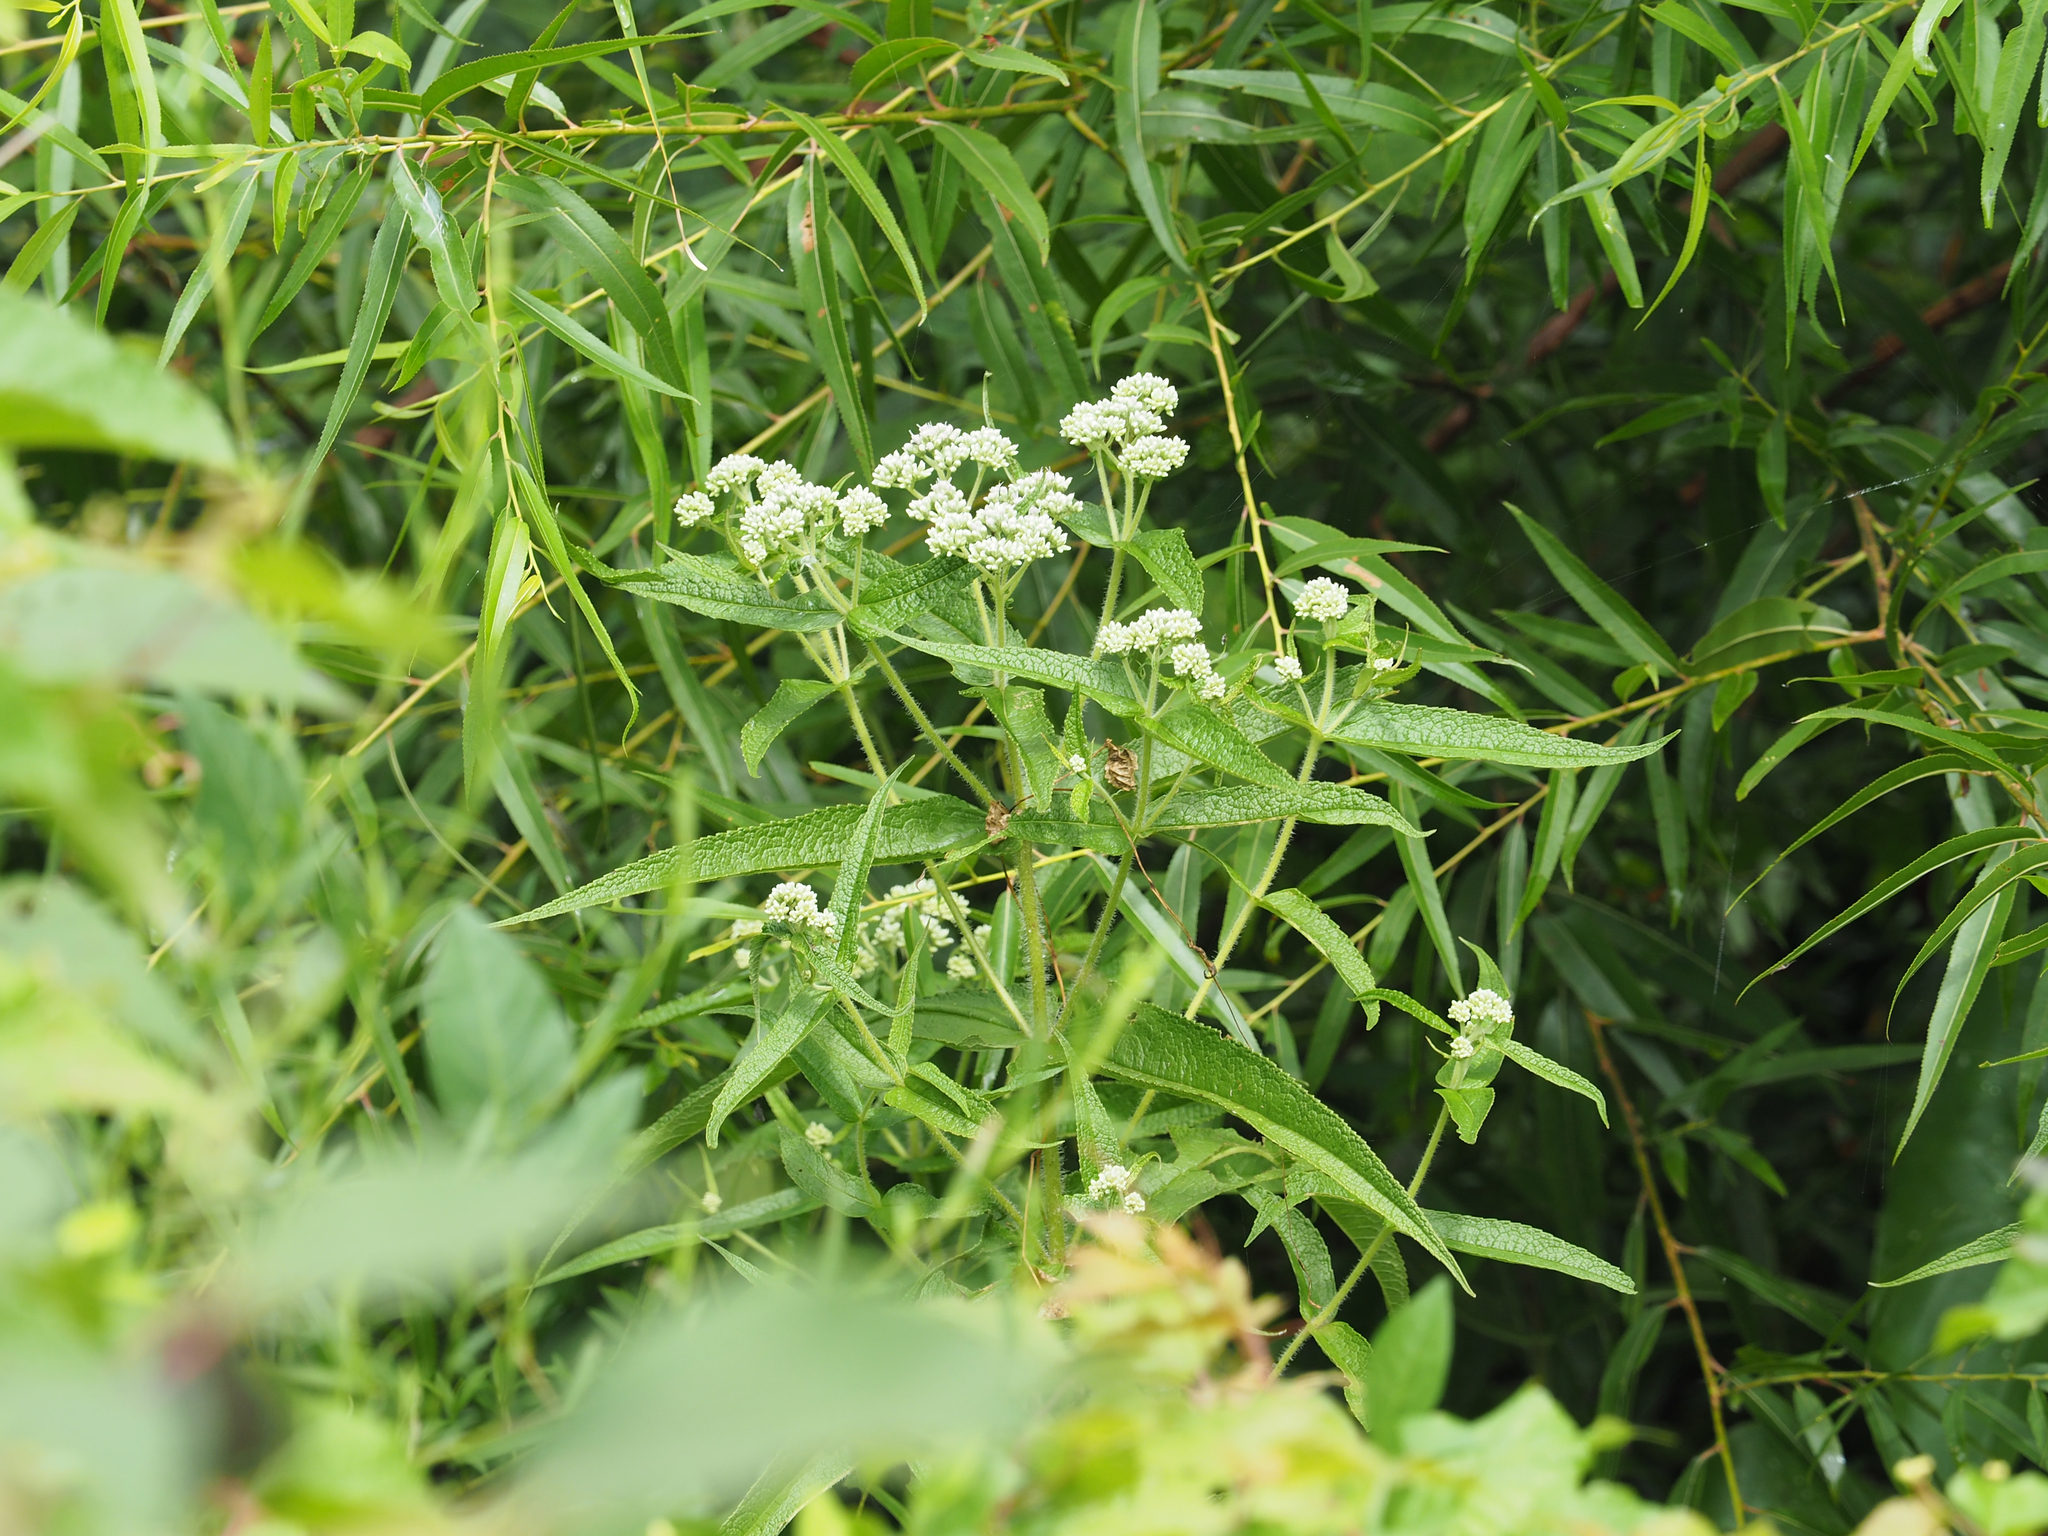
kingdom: Plantae
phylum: Tracheophyta
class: Magnoliopsida
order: Asterales
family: Asteraceae
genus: Eupatorium
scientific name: Eupatorium perfoliatum
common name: Boneset
